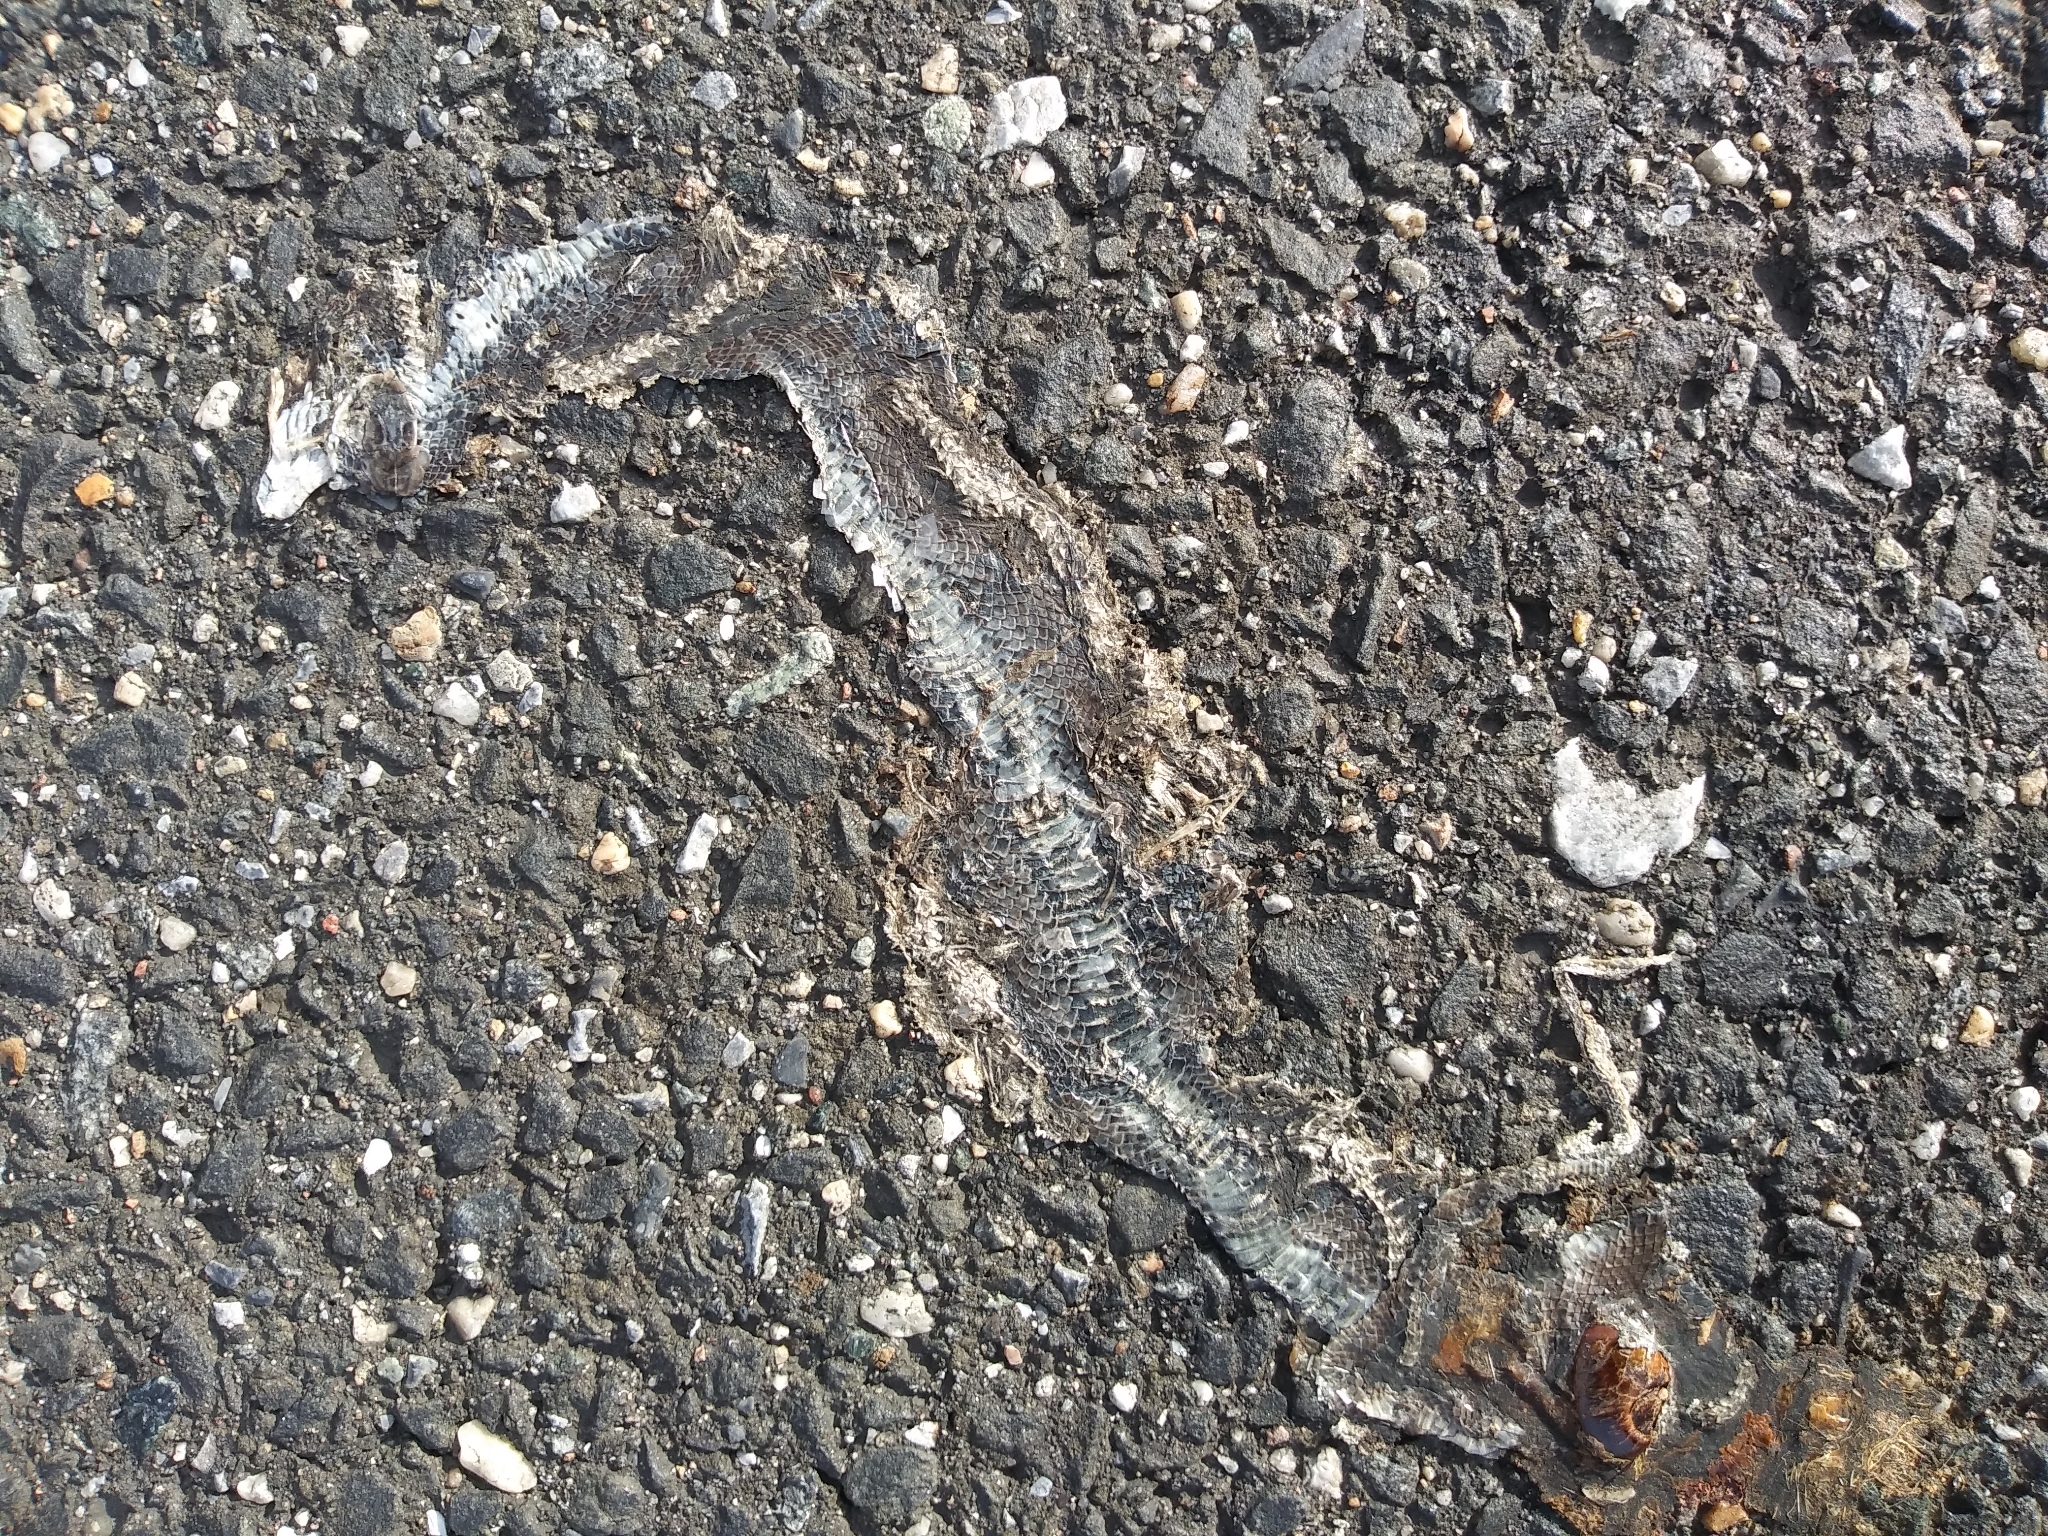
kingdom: Animalia
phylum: Chordata
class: Squamata
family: Colubridae
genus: Coluber
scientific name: Coluber constrictor
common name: Eastern racer
